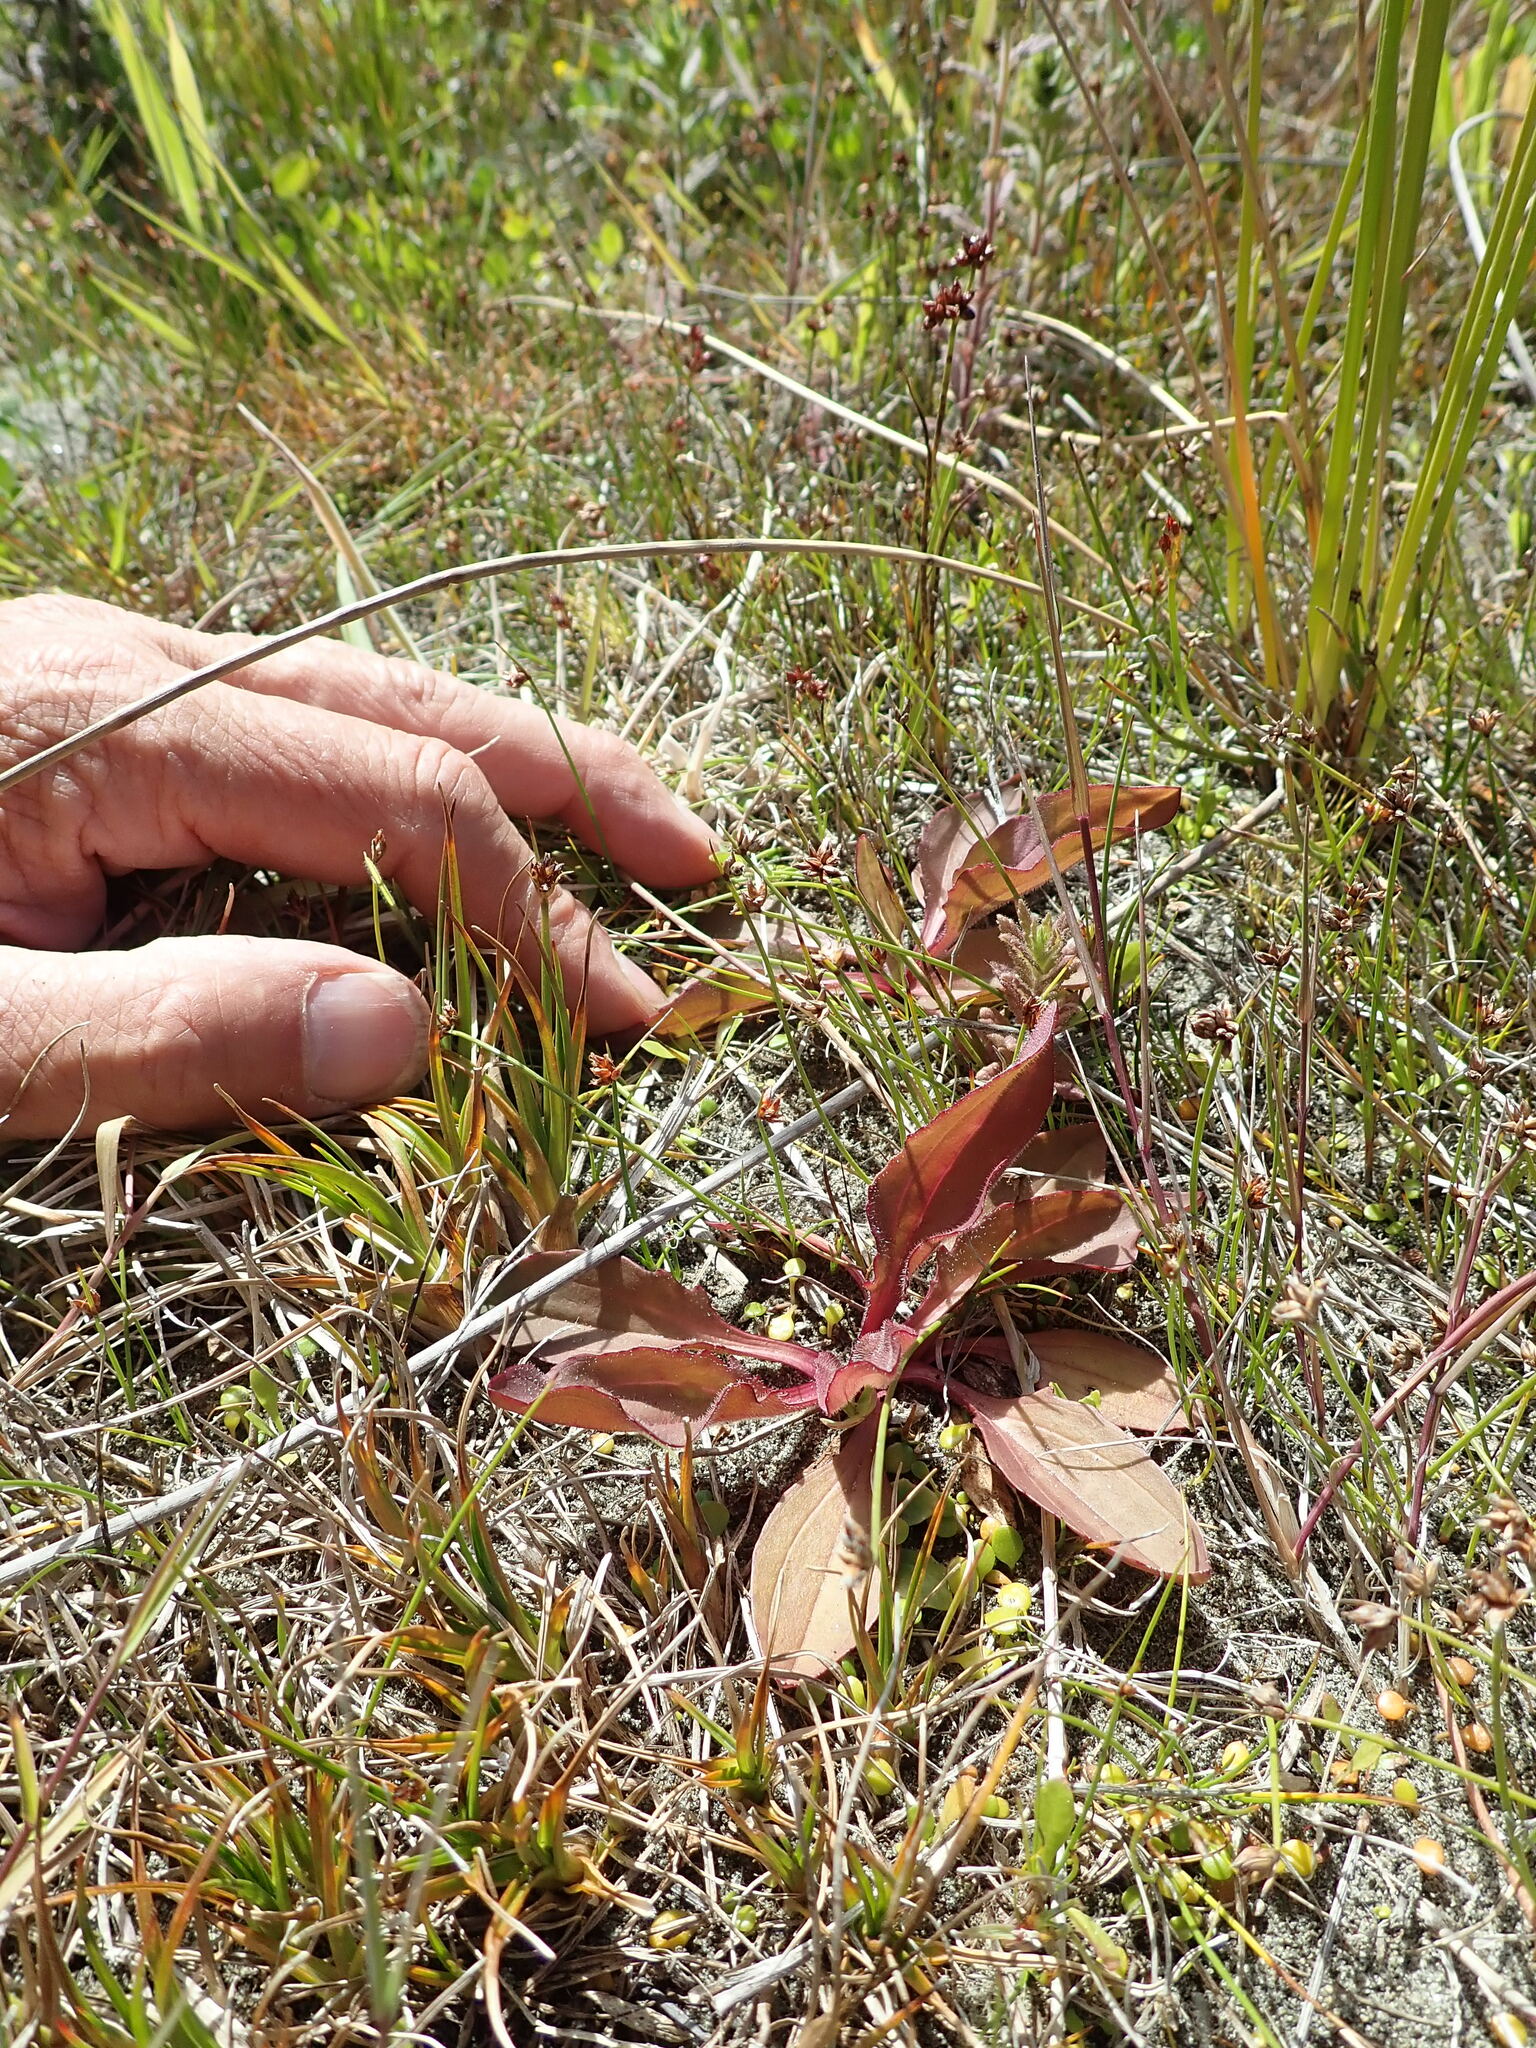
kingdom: Plantae
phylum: Tracheophyta
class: Magnoliopsida
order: Lamiales
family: Plantaginaceae
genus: Plantago
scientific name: Plantago australis
